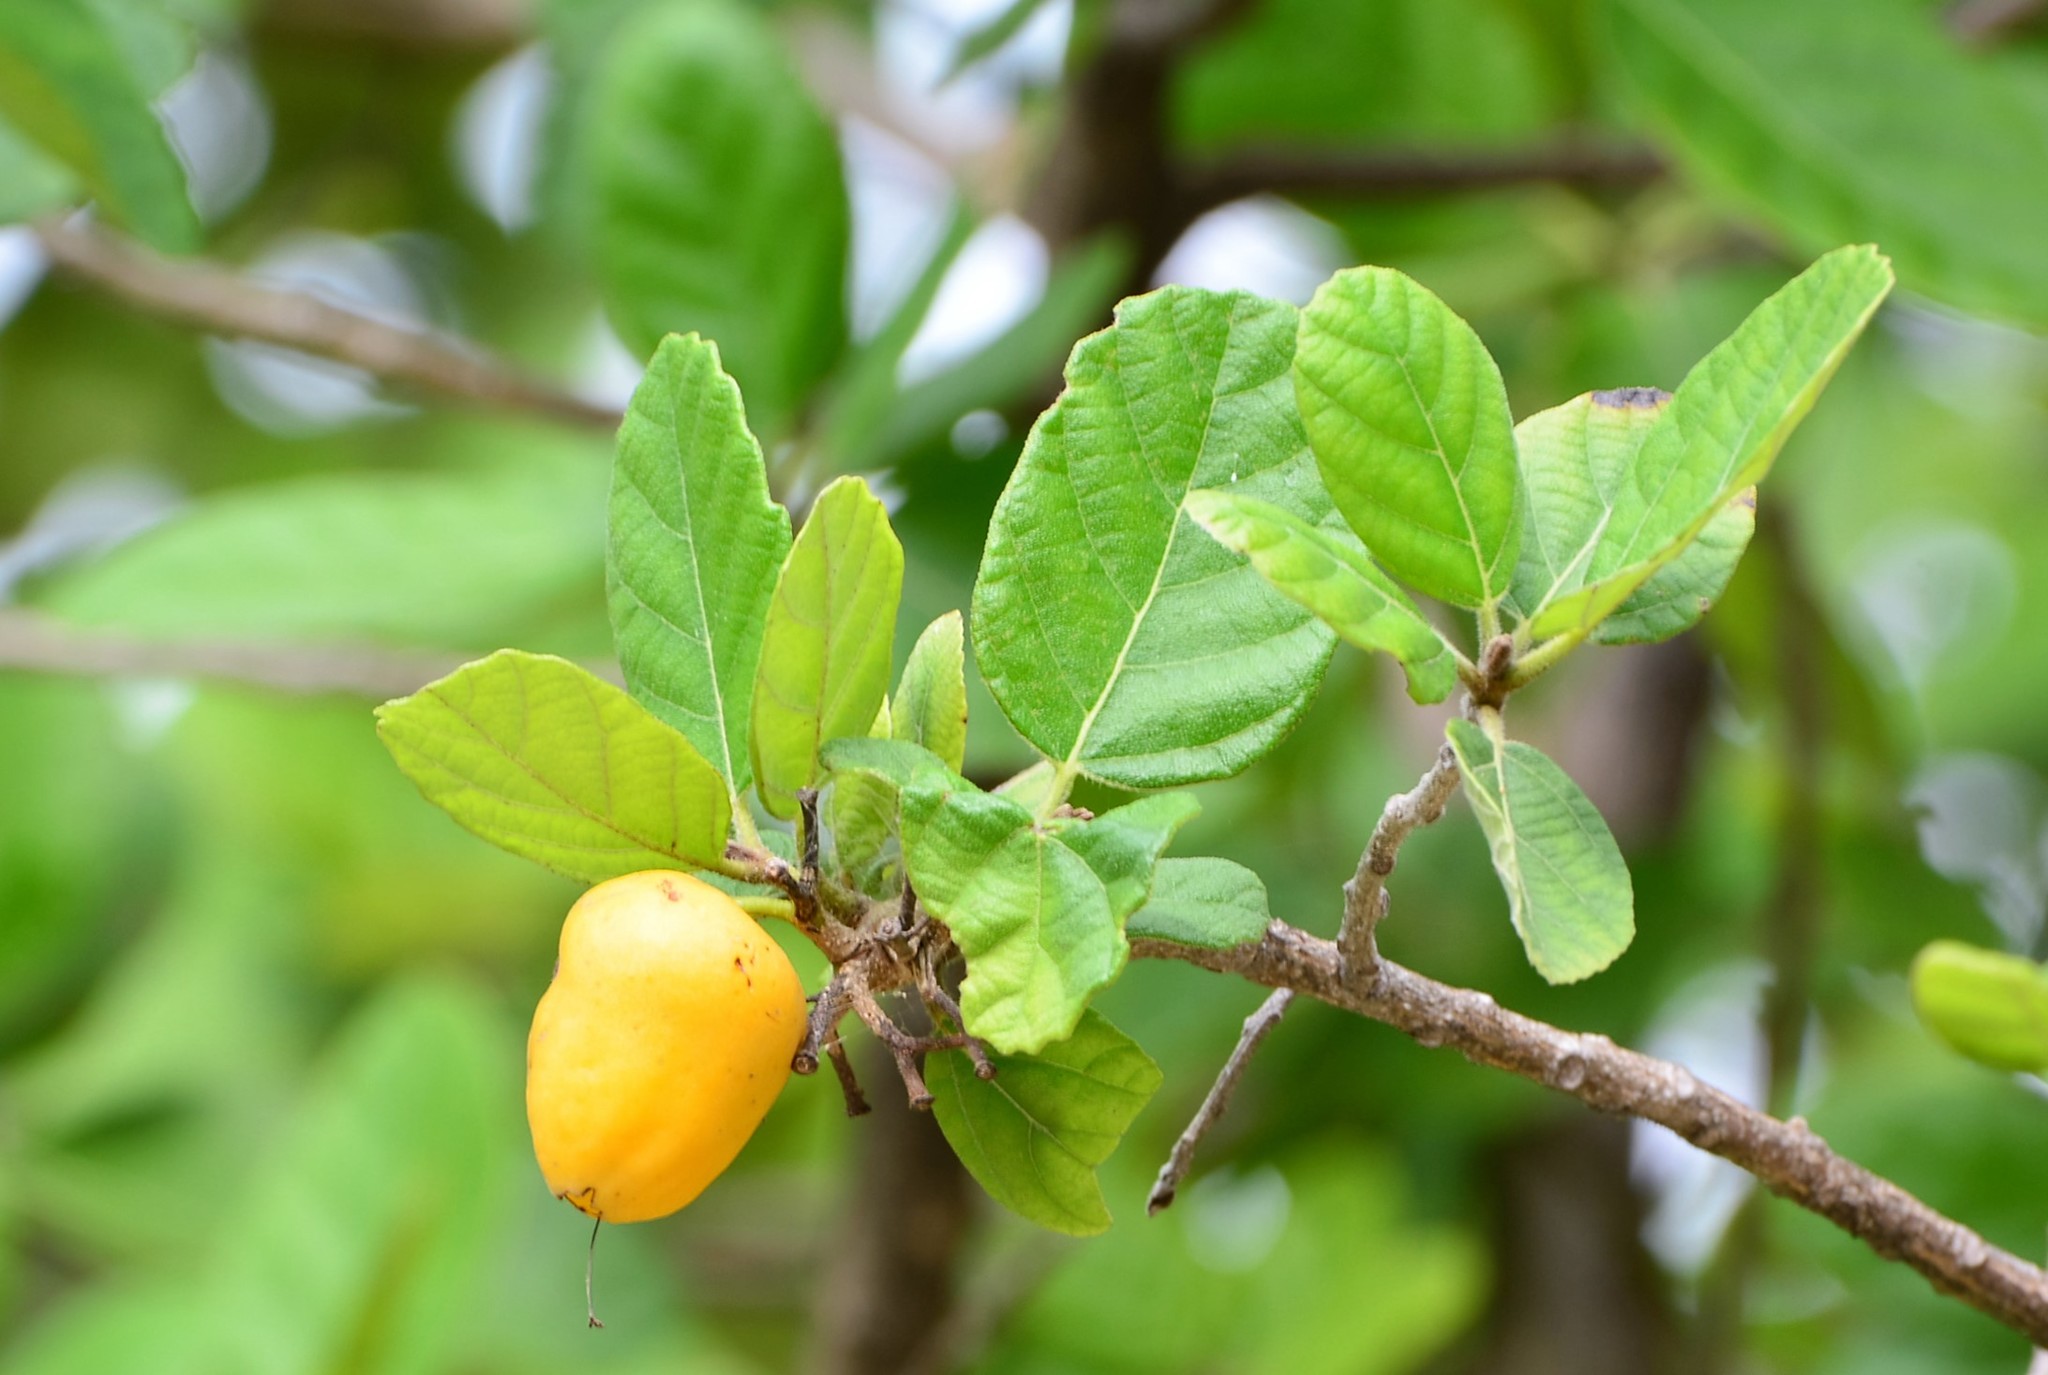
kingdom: Plantae
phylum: Tracheophyta
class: Magnoliopsida
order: Boraginales
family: Cordiaceae
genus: Cordia
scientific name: Cordia dodecandra
